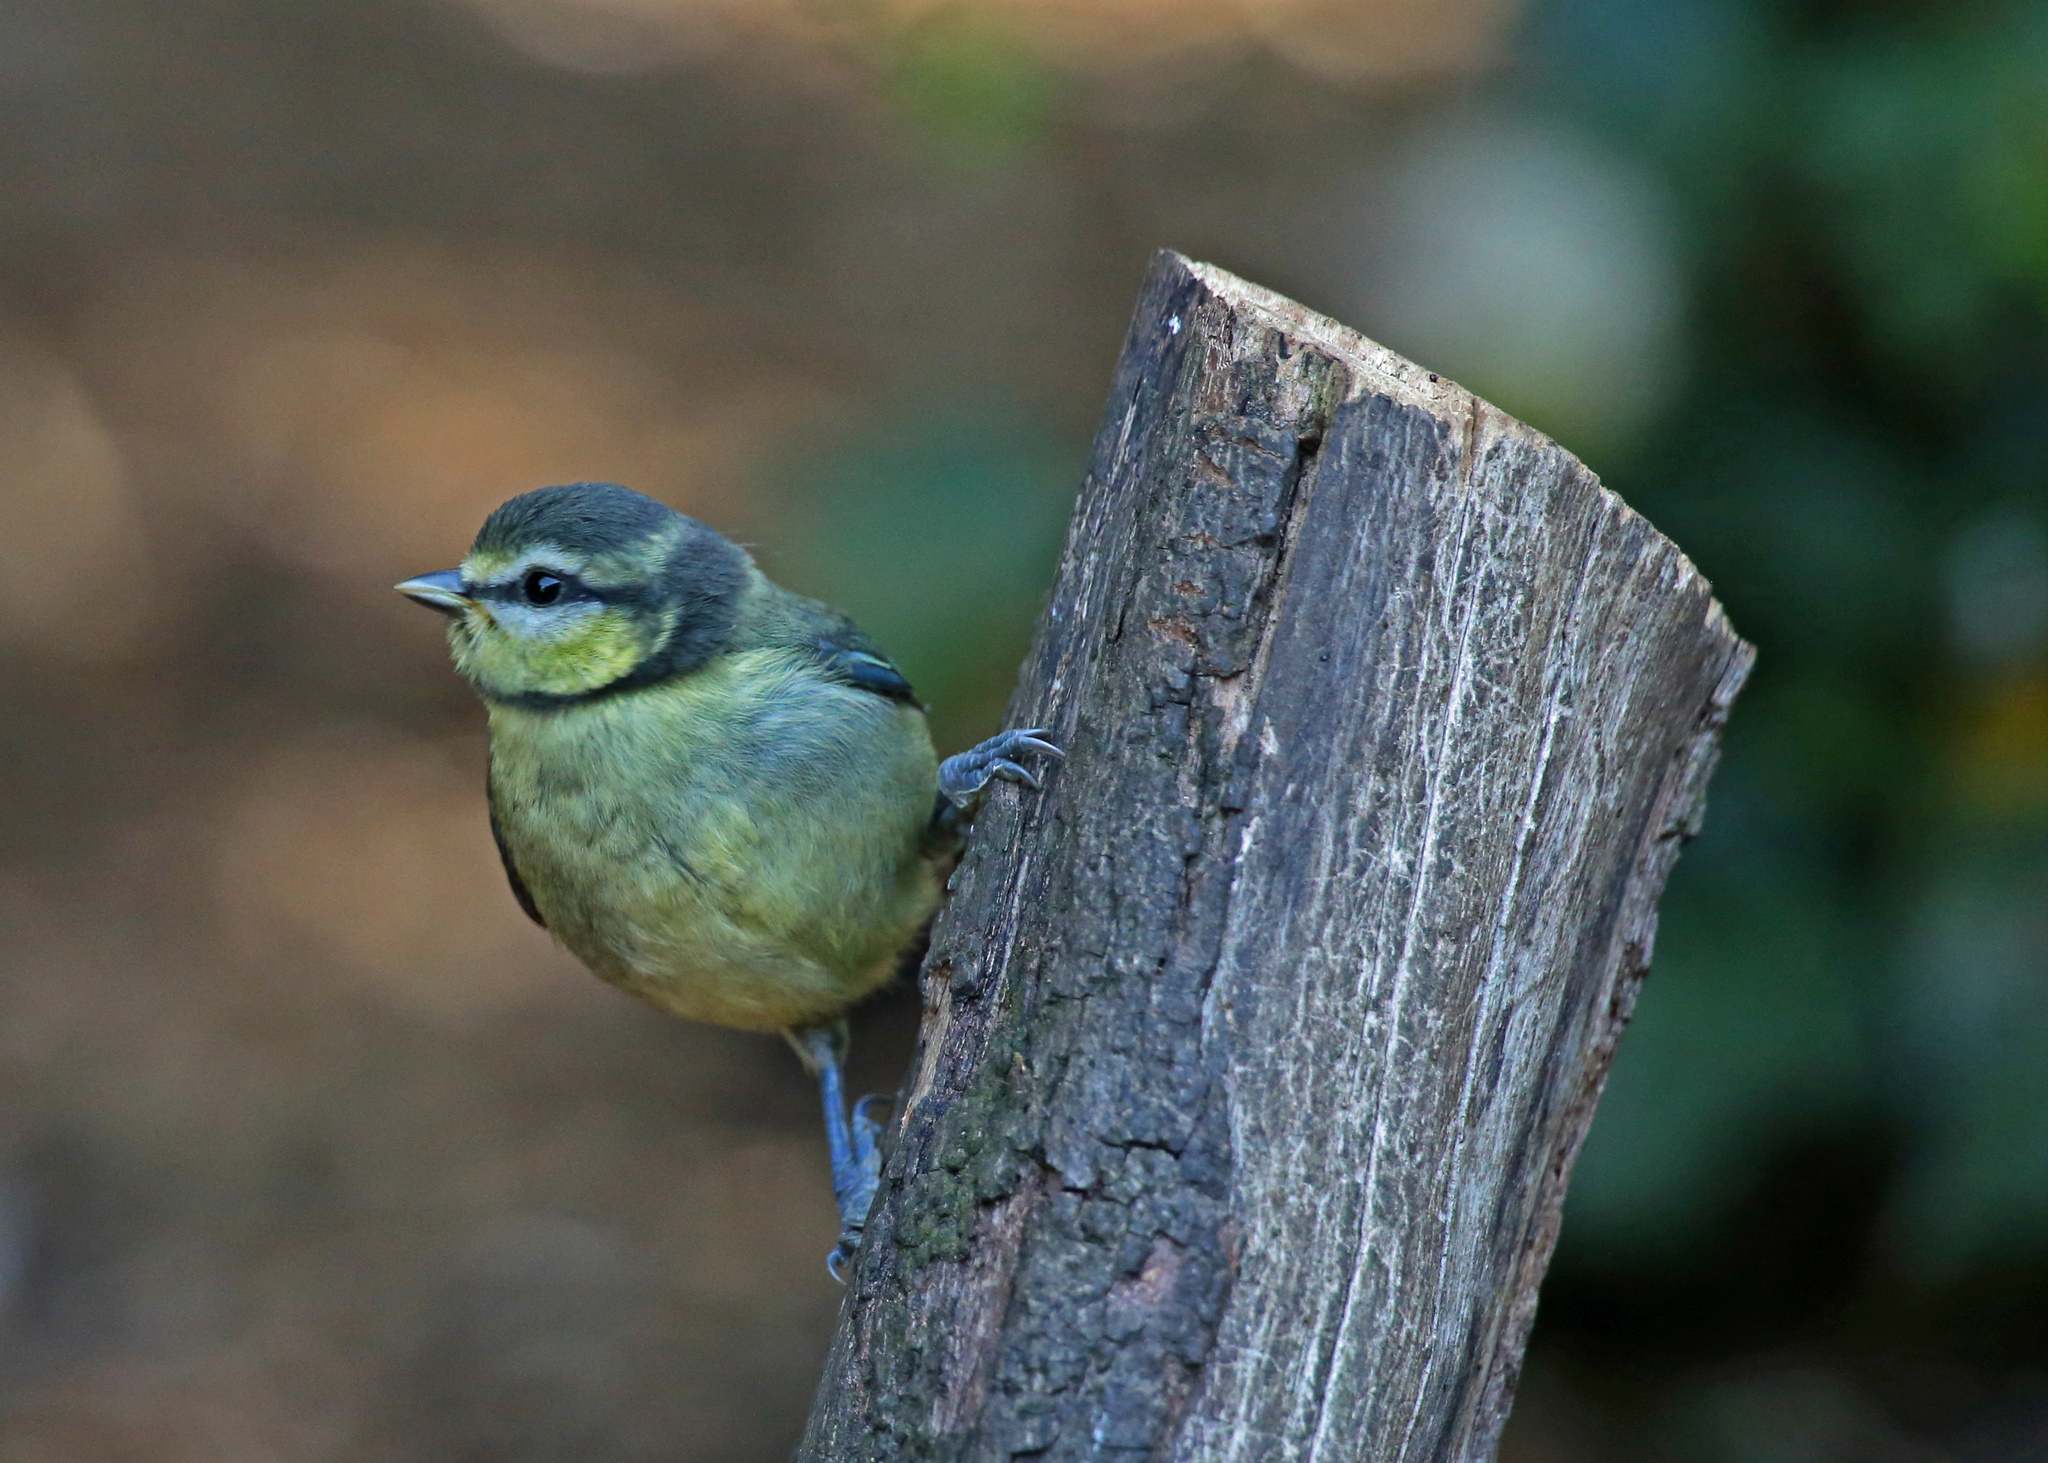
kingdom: Animalia
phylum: Chordata
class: Aves
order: Passeriformes
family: Paridae
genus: Cyanistes
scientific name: Cyanistes caeruleus
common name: Eurasian blue tit
